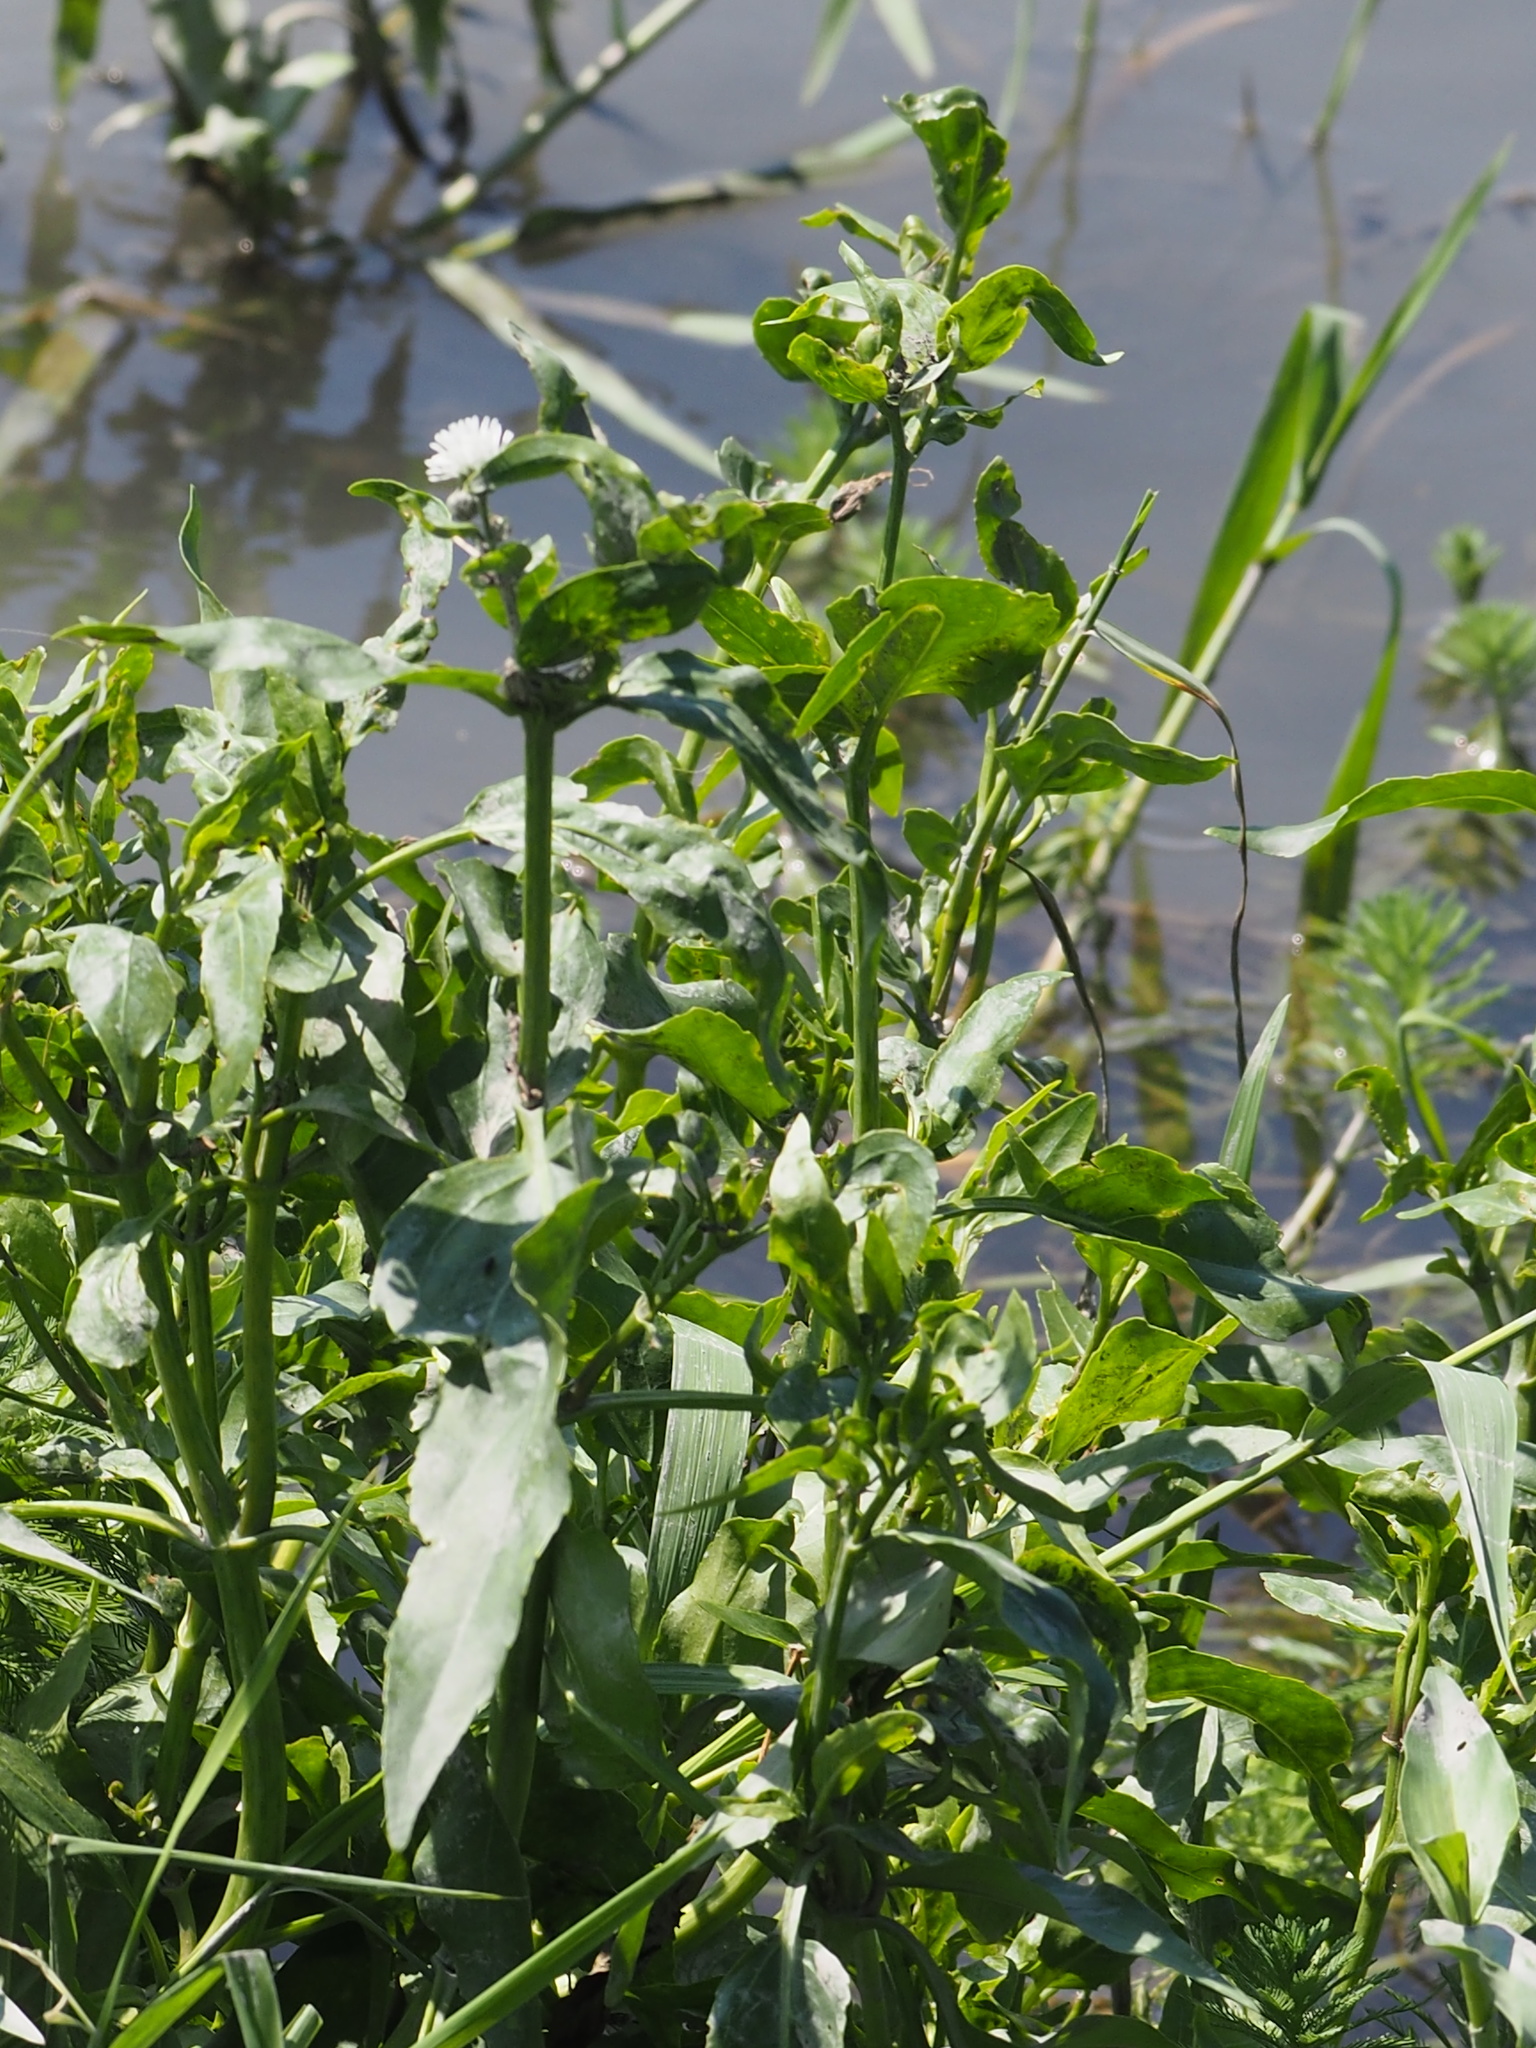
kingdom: Plantae
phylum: Tracheophyta
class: Magnoliopsida
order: Asterales
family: Asteraceae
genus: Gymnocoronis
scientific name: Gymnocoronis spilanthoides
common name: Senegal teaplant
